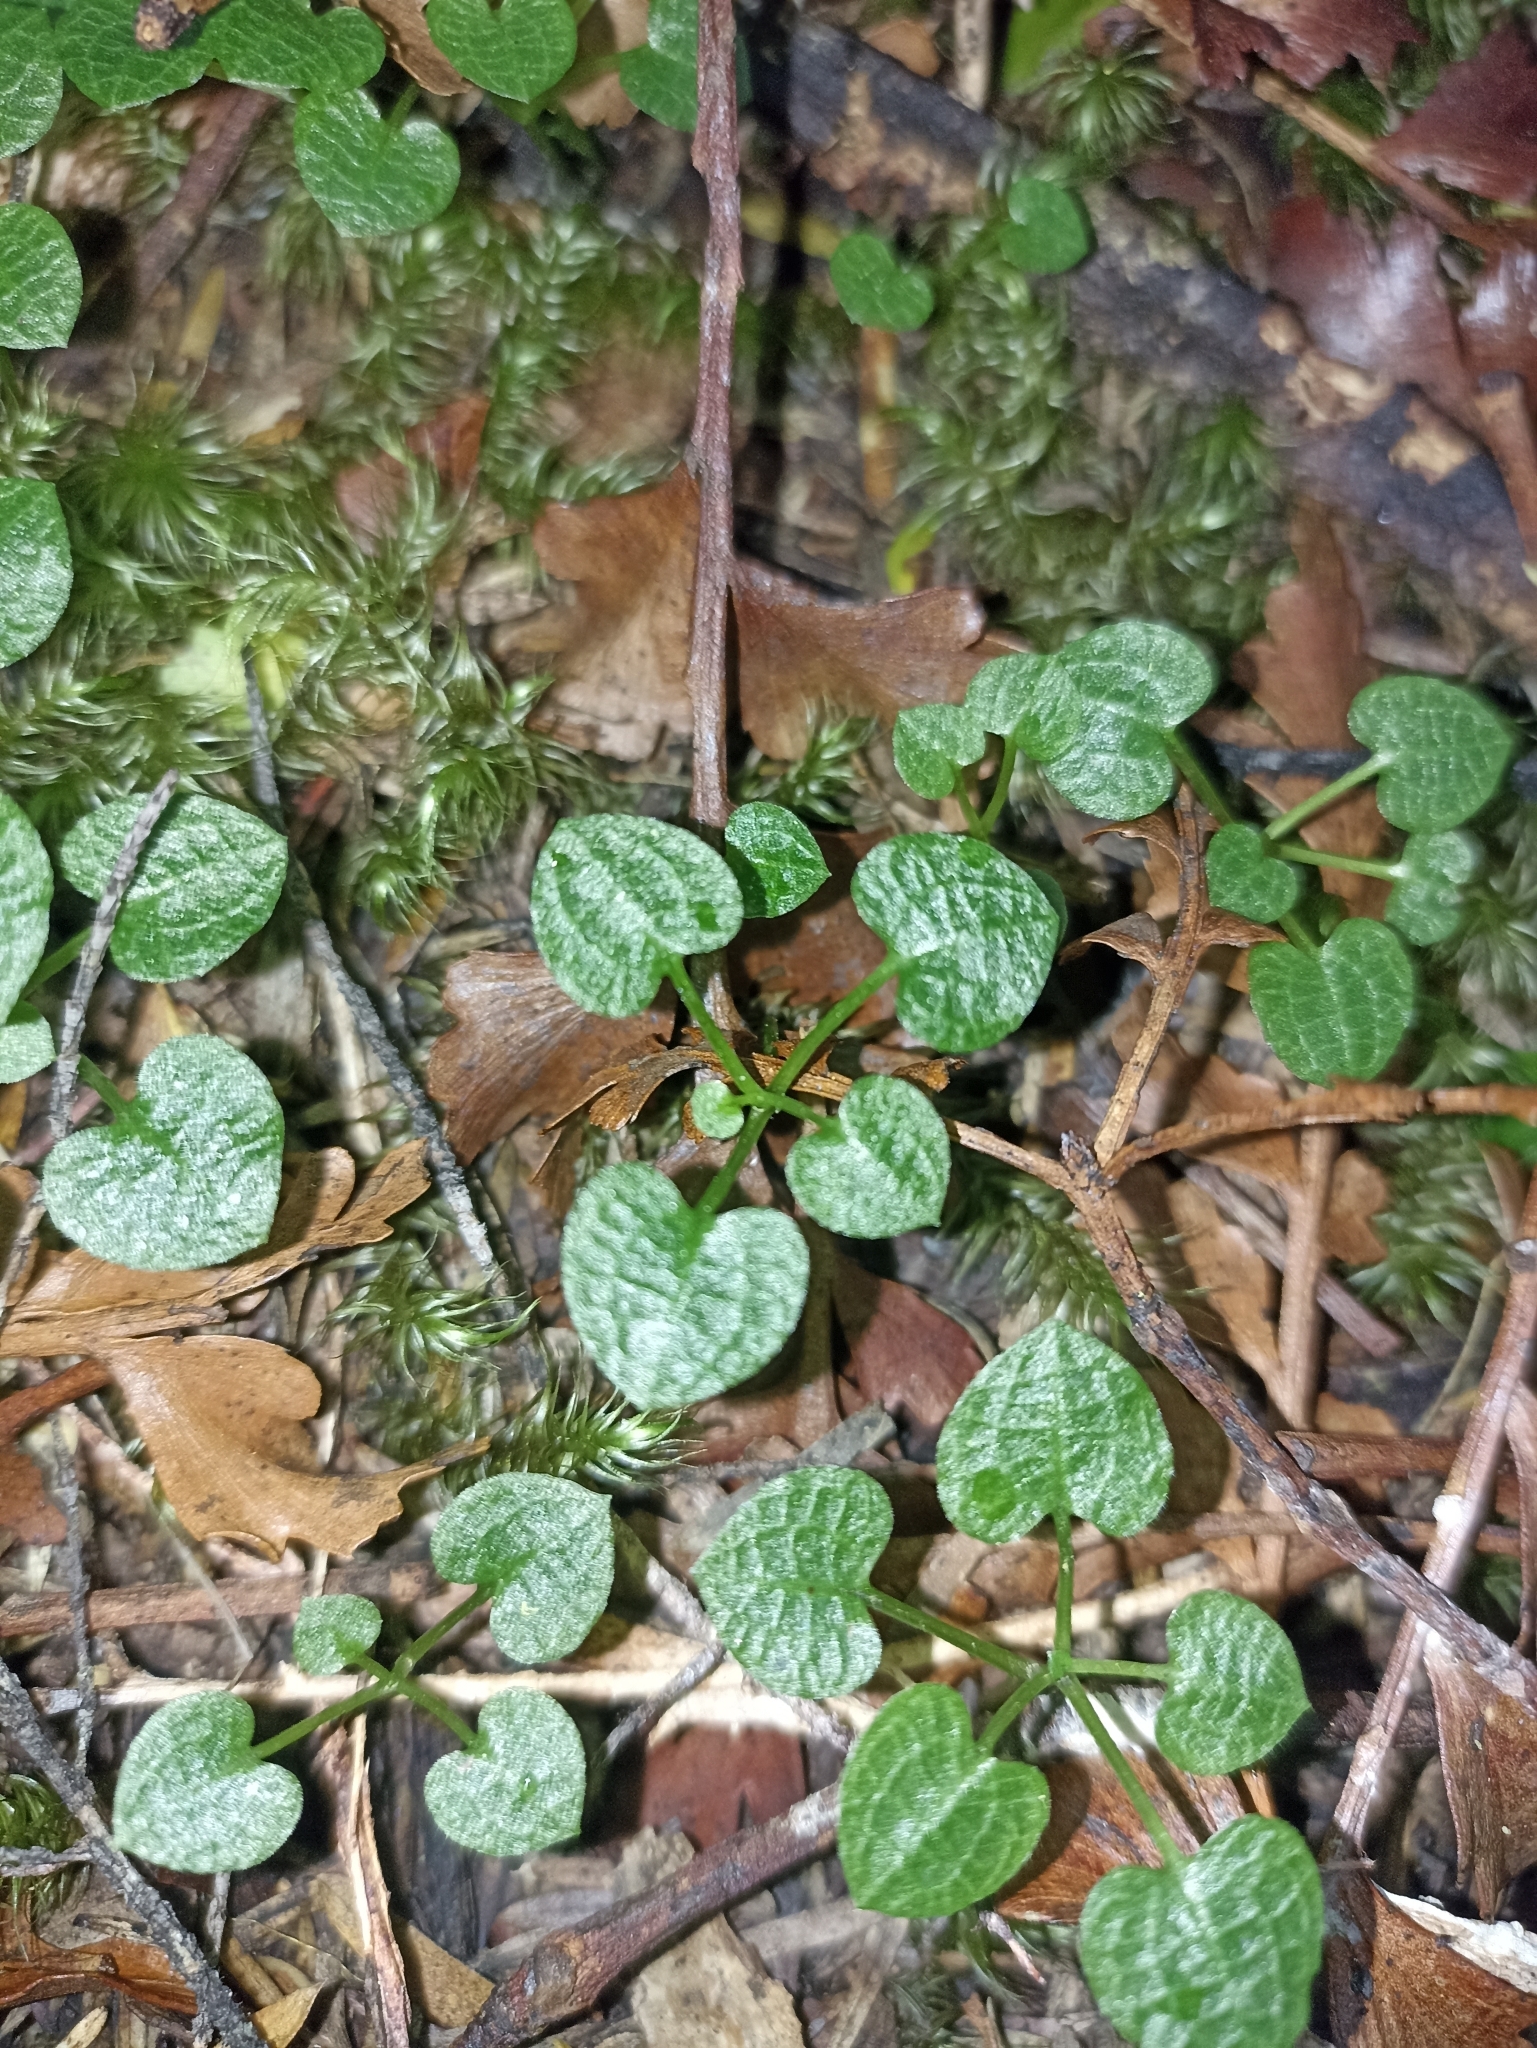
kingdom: Plantae
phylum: Tracheophyta
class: Liliopsida
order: Asparagales
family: Orchidaceae
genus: Pterostylis
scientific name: Pterostylis trullifolia
